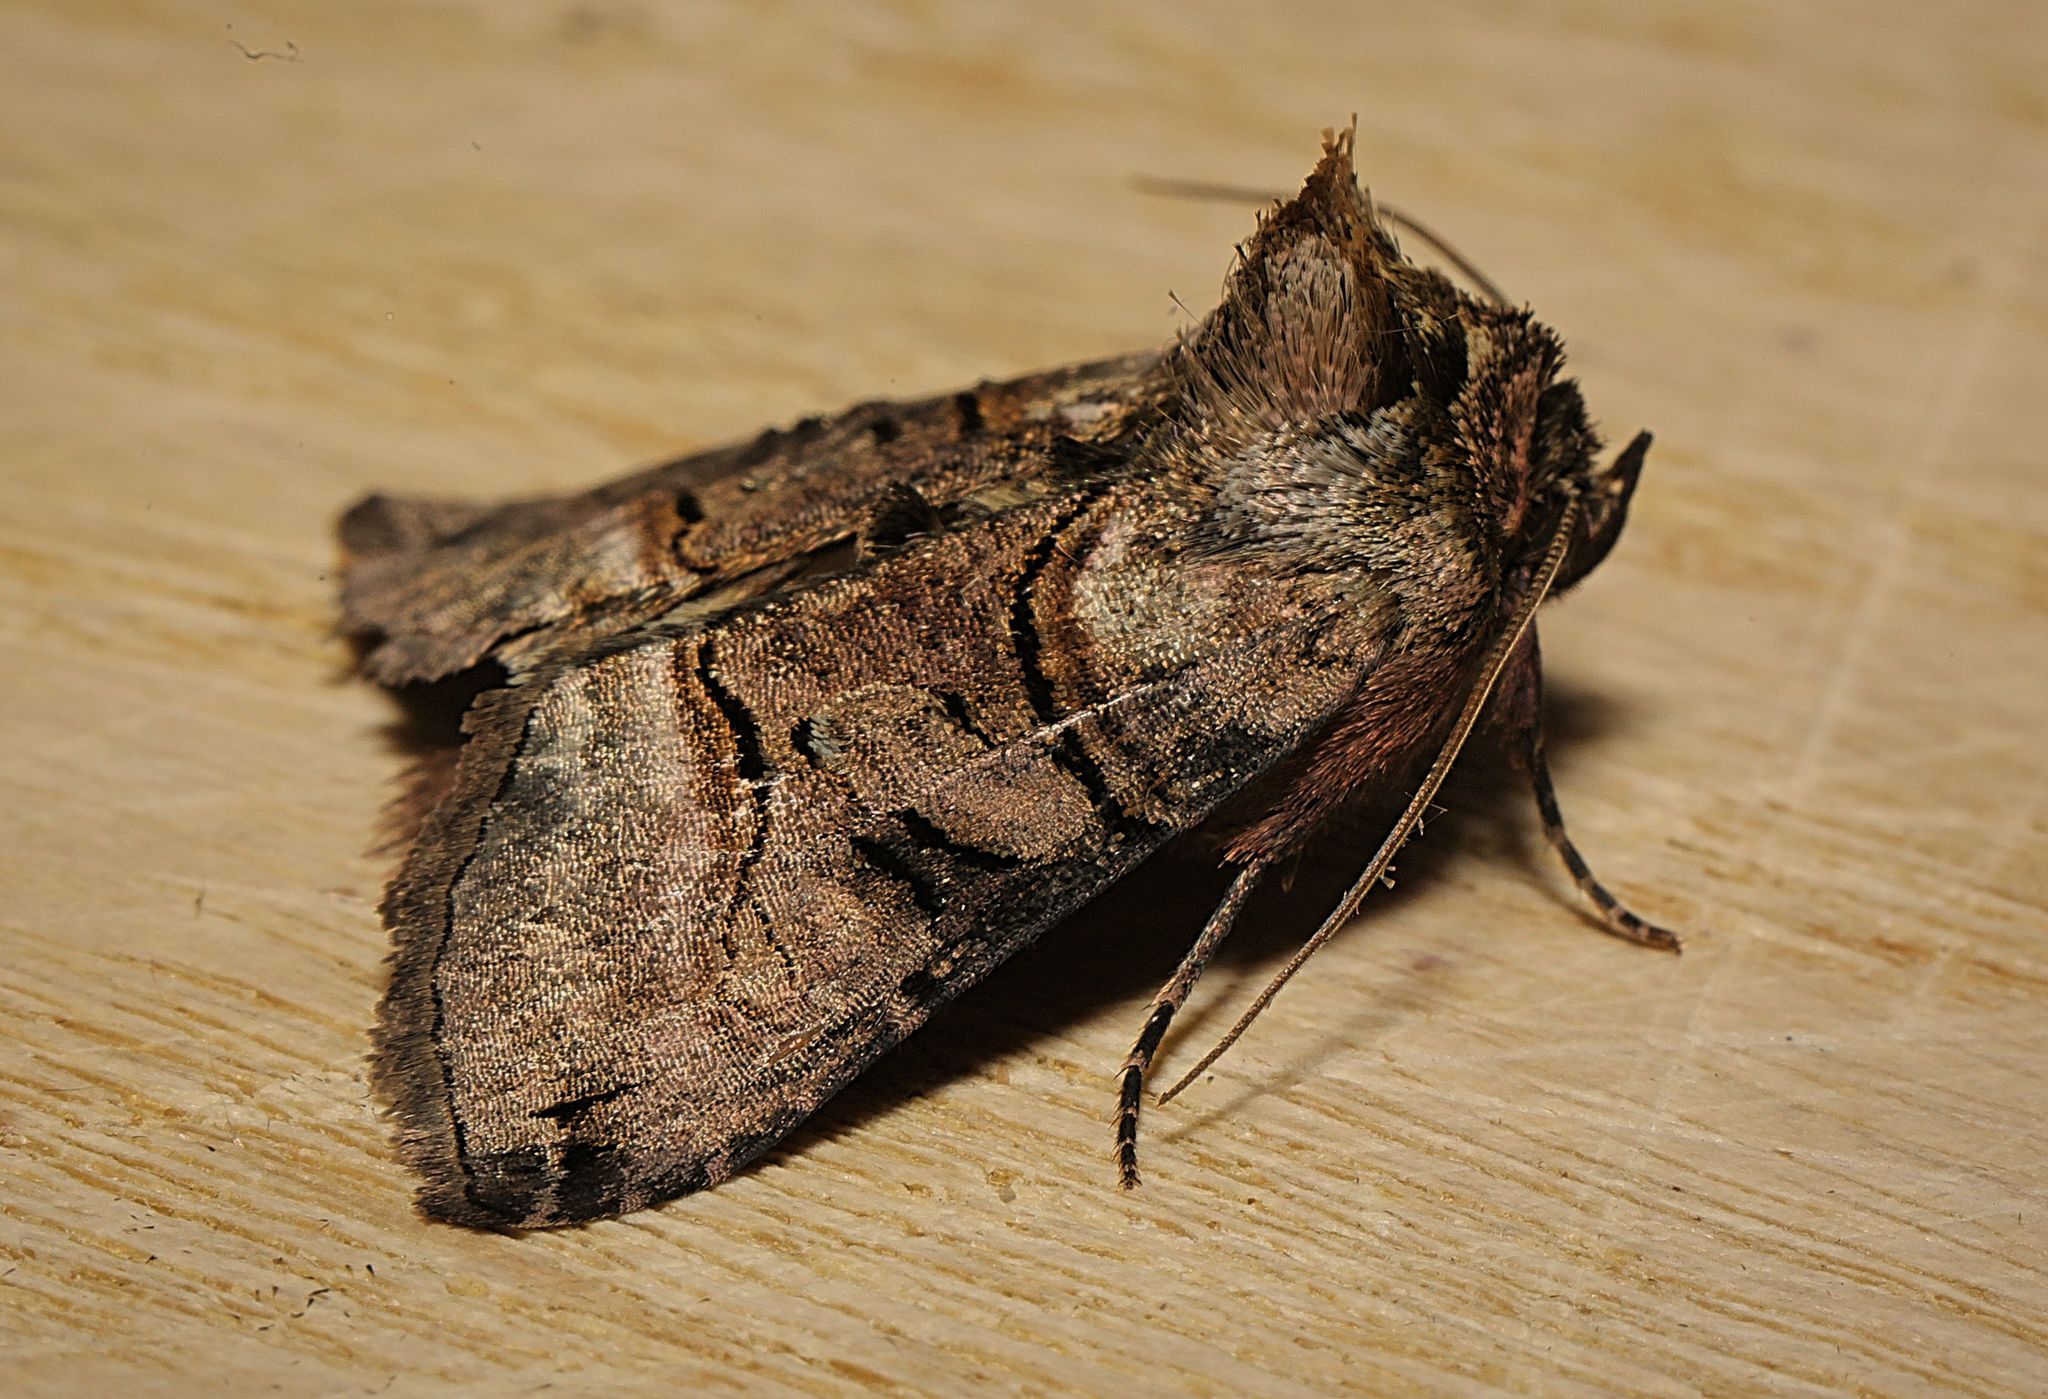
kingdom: Animalia
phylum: Arthropoda
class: Insecta
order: Lepidoptera
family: Noctuidae
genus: Abrostola
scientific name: Abrostola tripartita
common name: Spectacle
